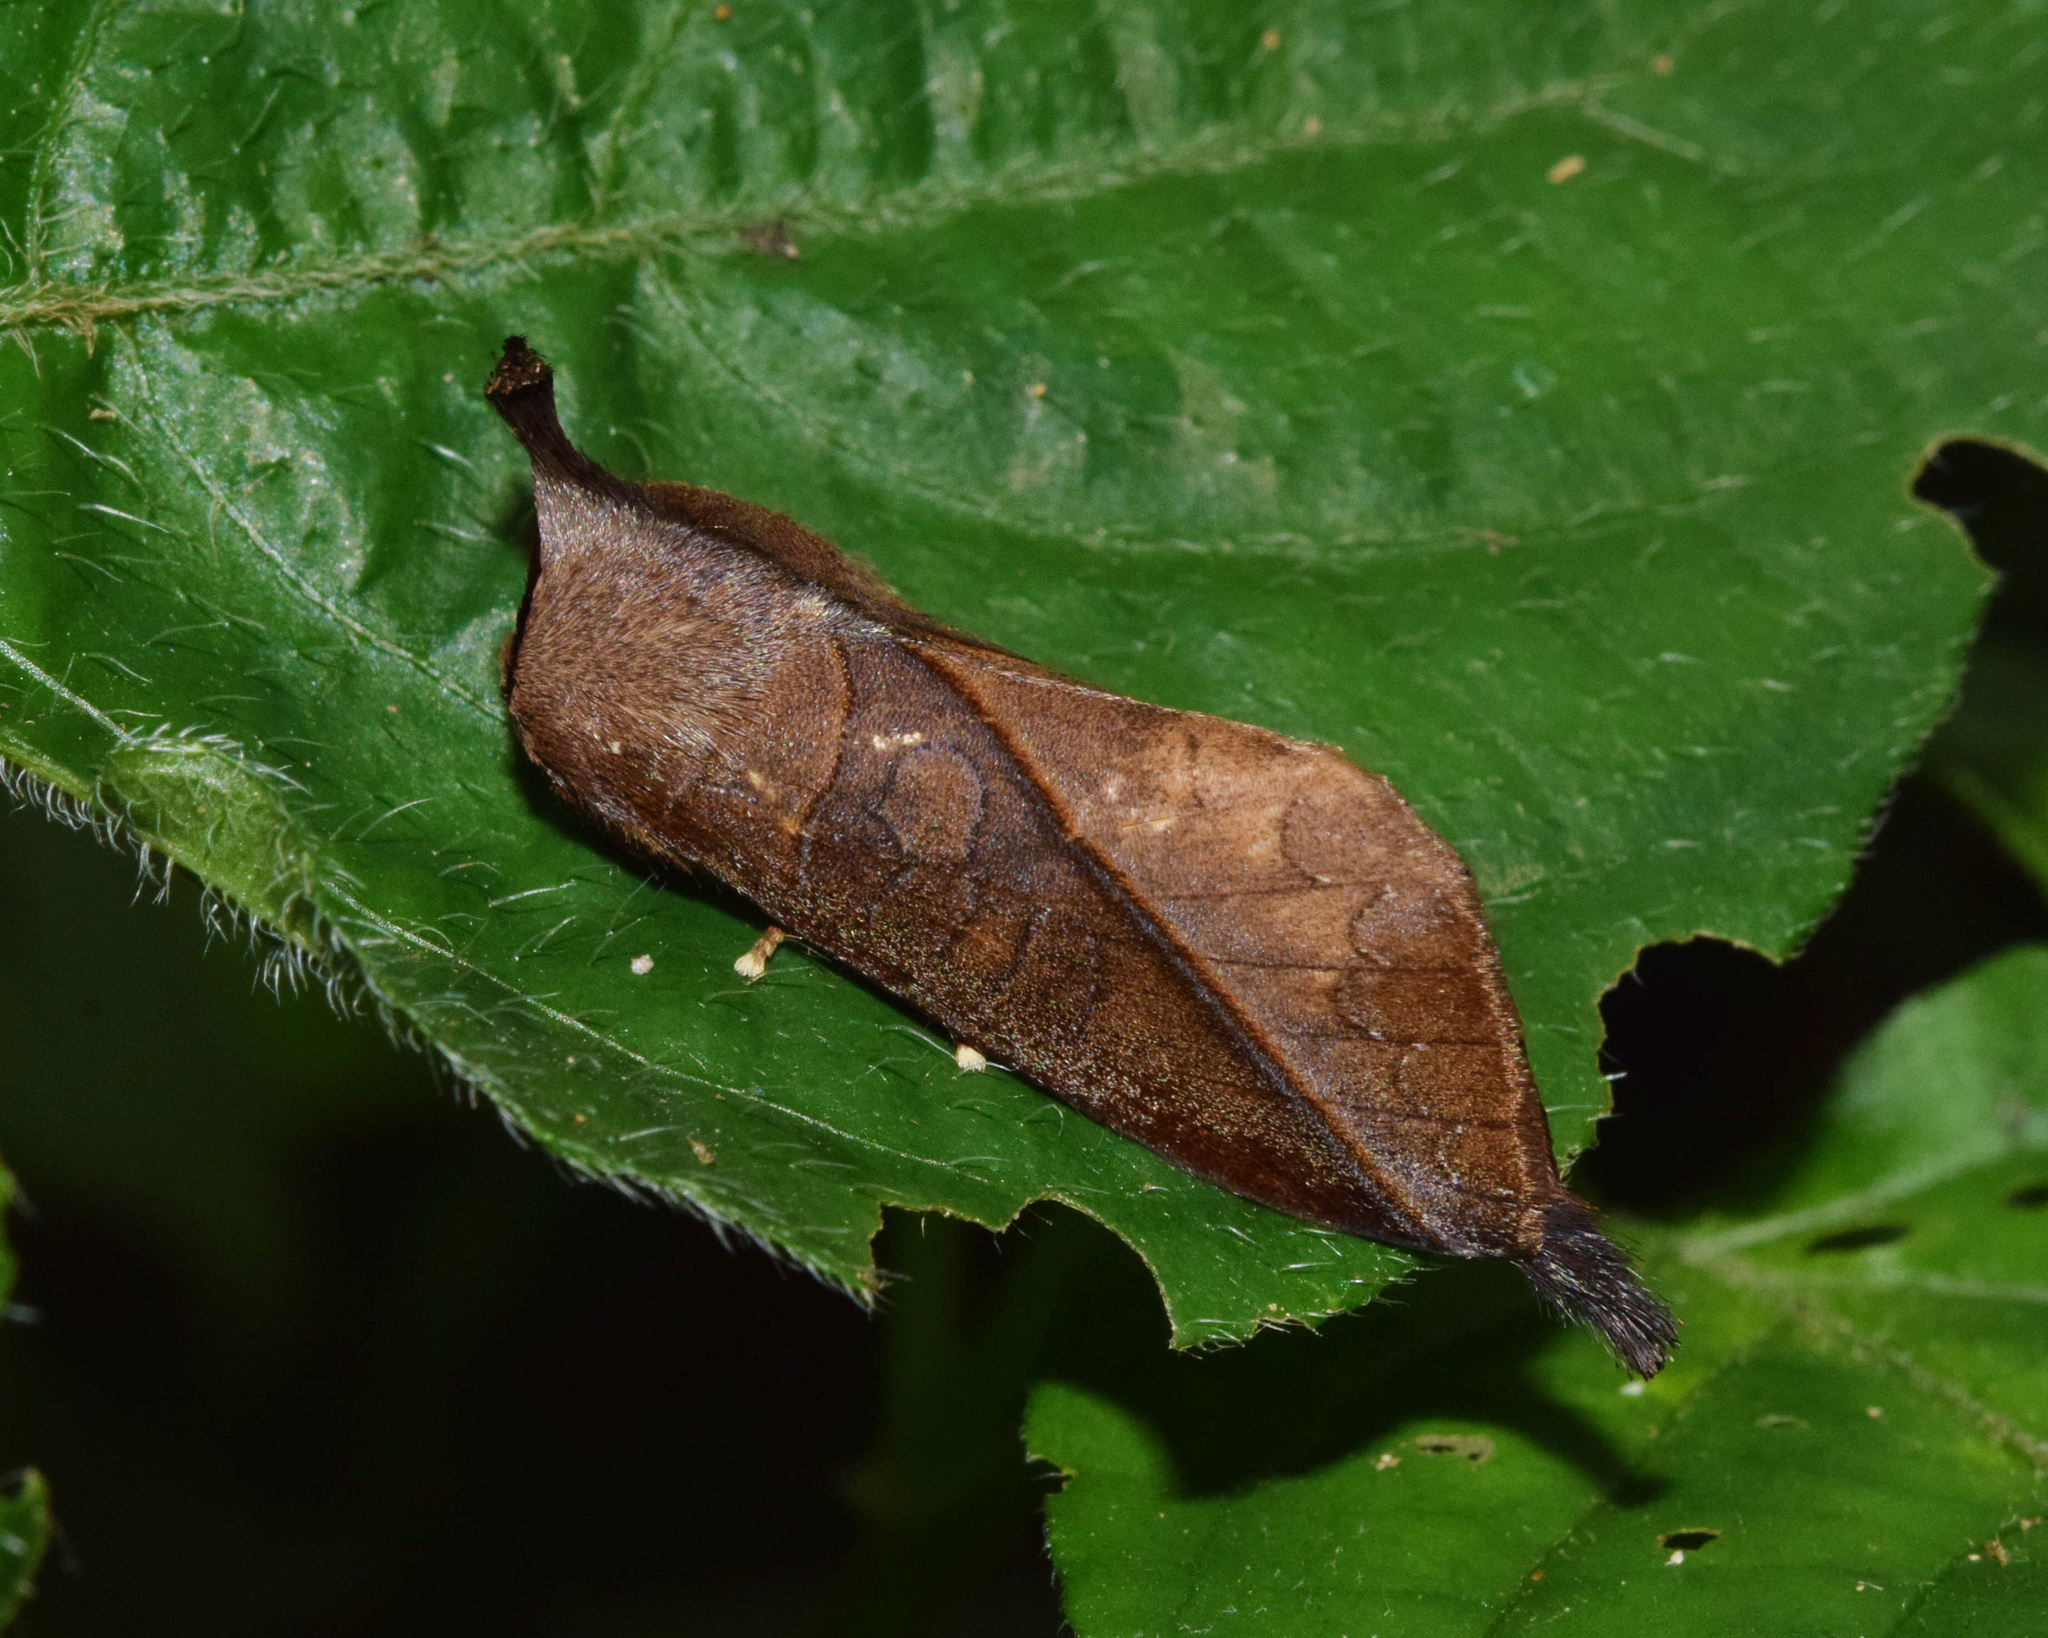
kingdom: Animalia
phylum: Arthropoda
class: Insecta
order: Lepidoptera
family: Notodontidae
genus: Odontoperas
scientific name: Odontoperas heterogyna
